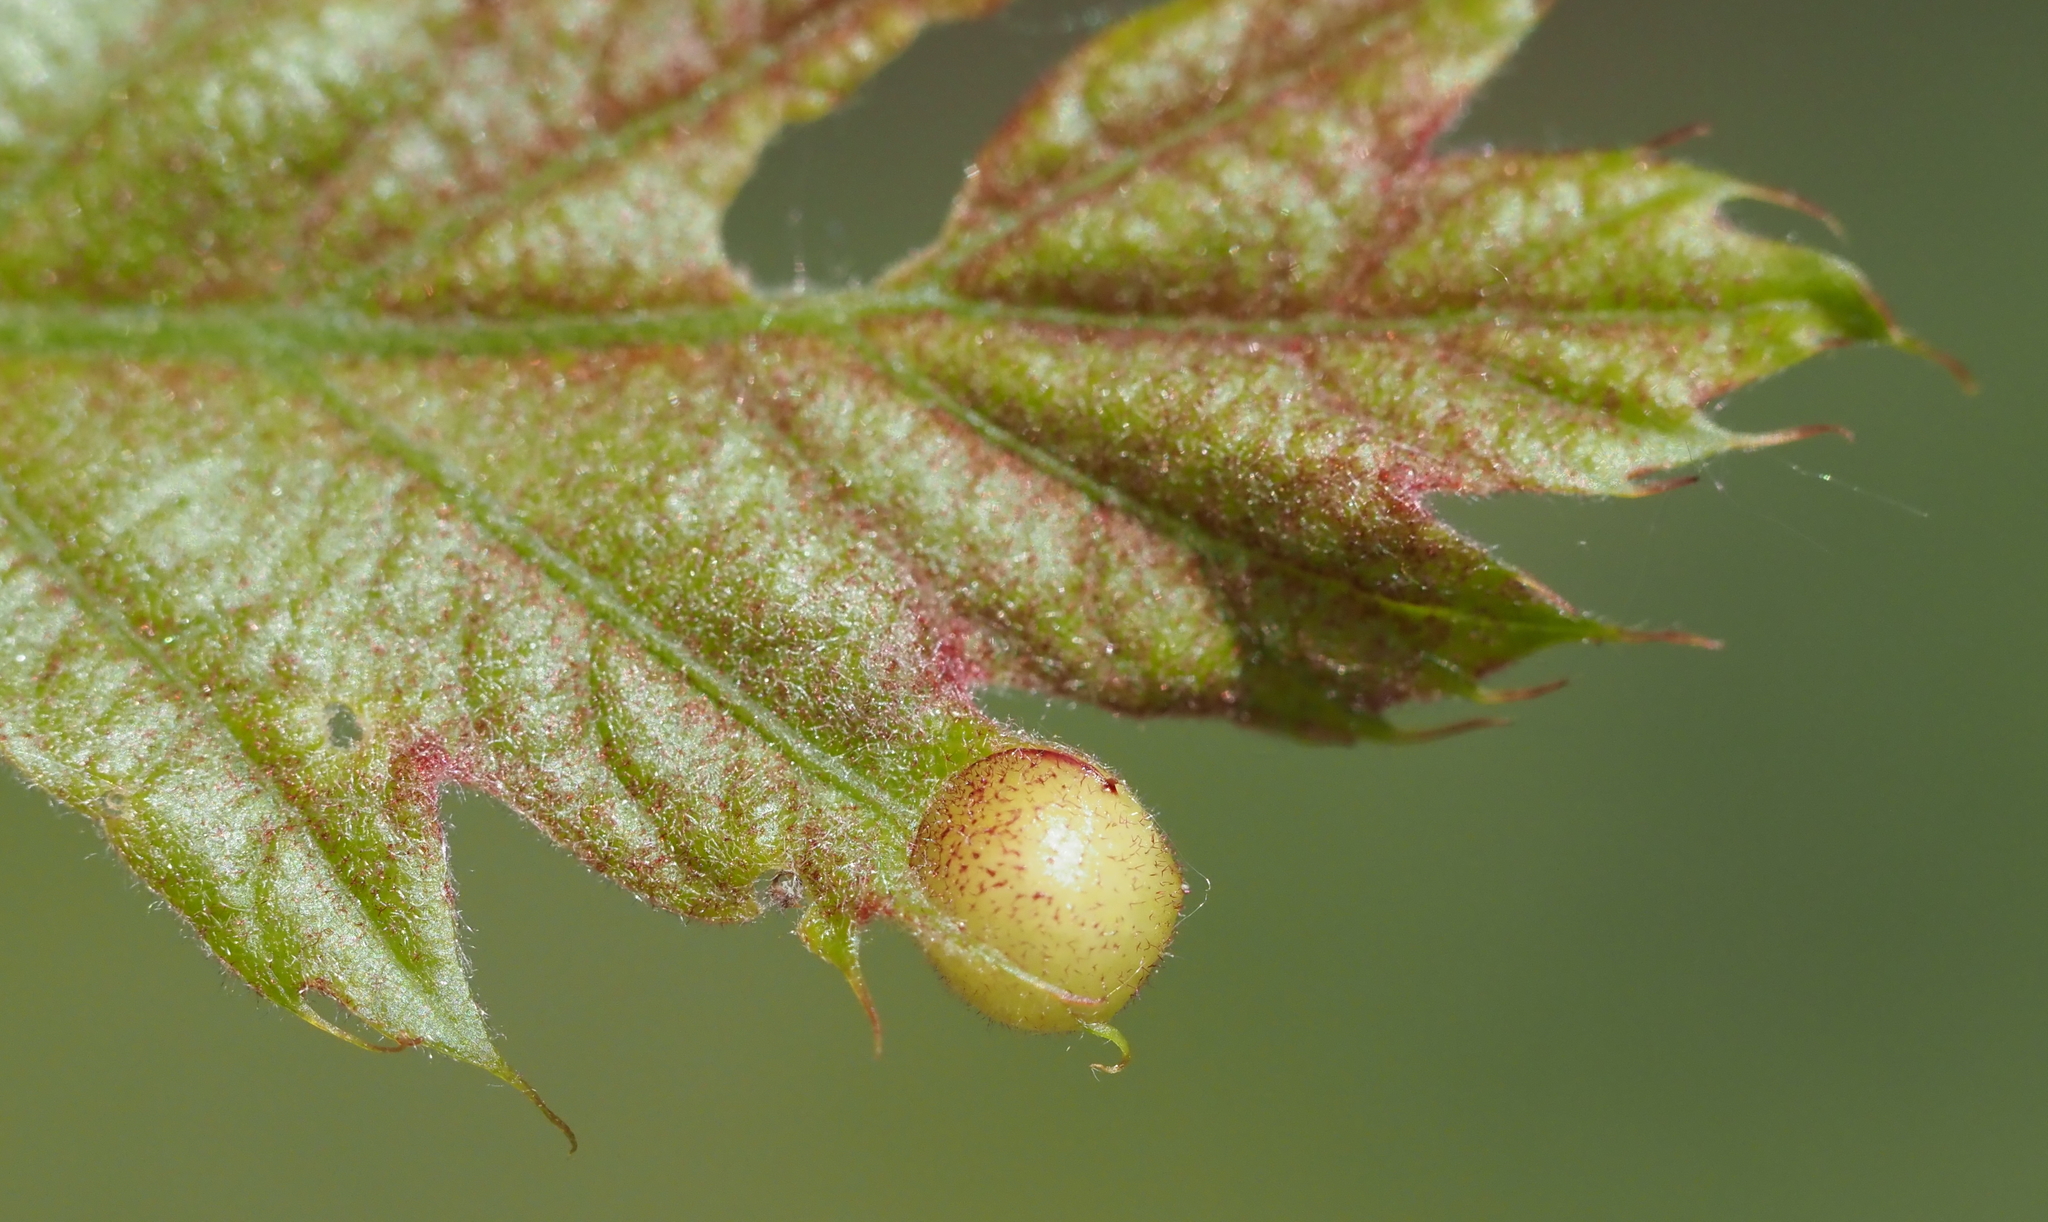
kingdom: Animalia
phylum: Arthropoda
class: Insecta
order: Hymenoptera
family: Cynipidae
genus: Amphibolips
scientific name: Amphibolips
